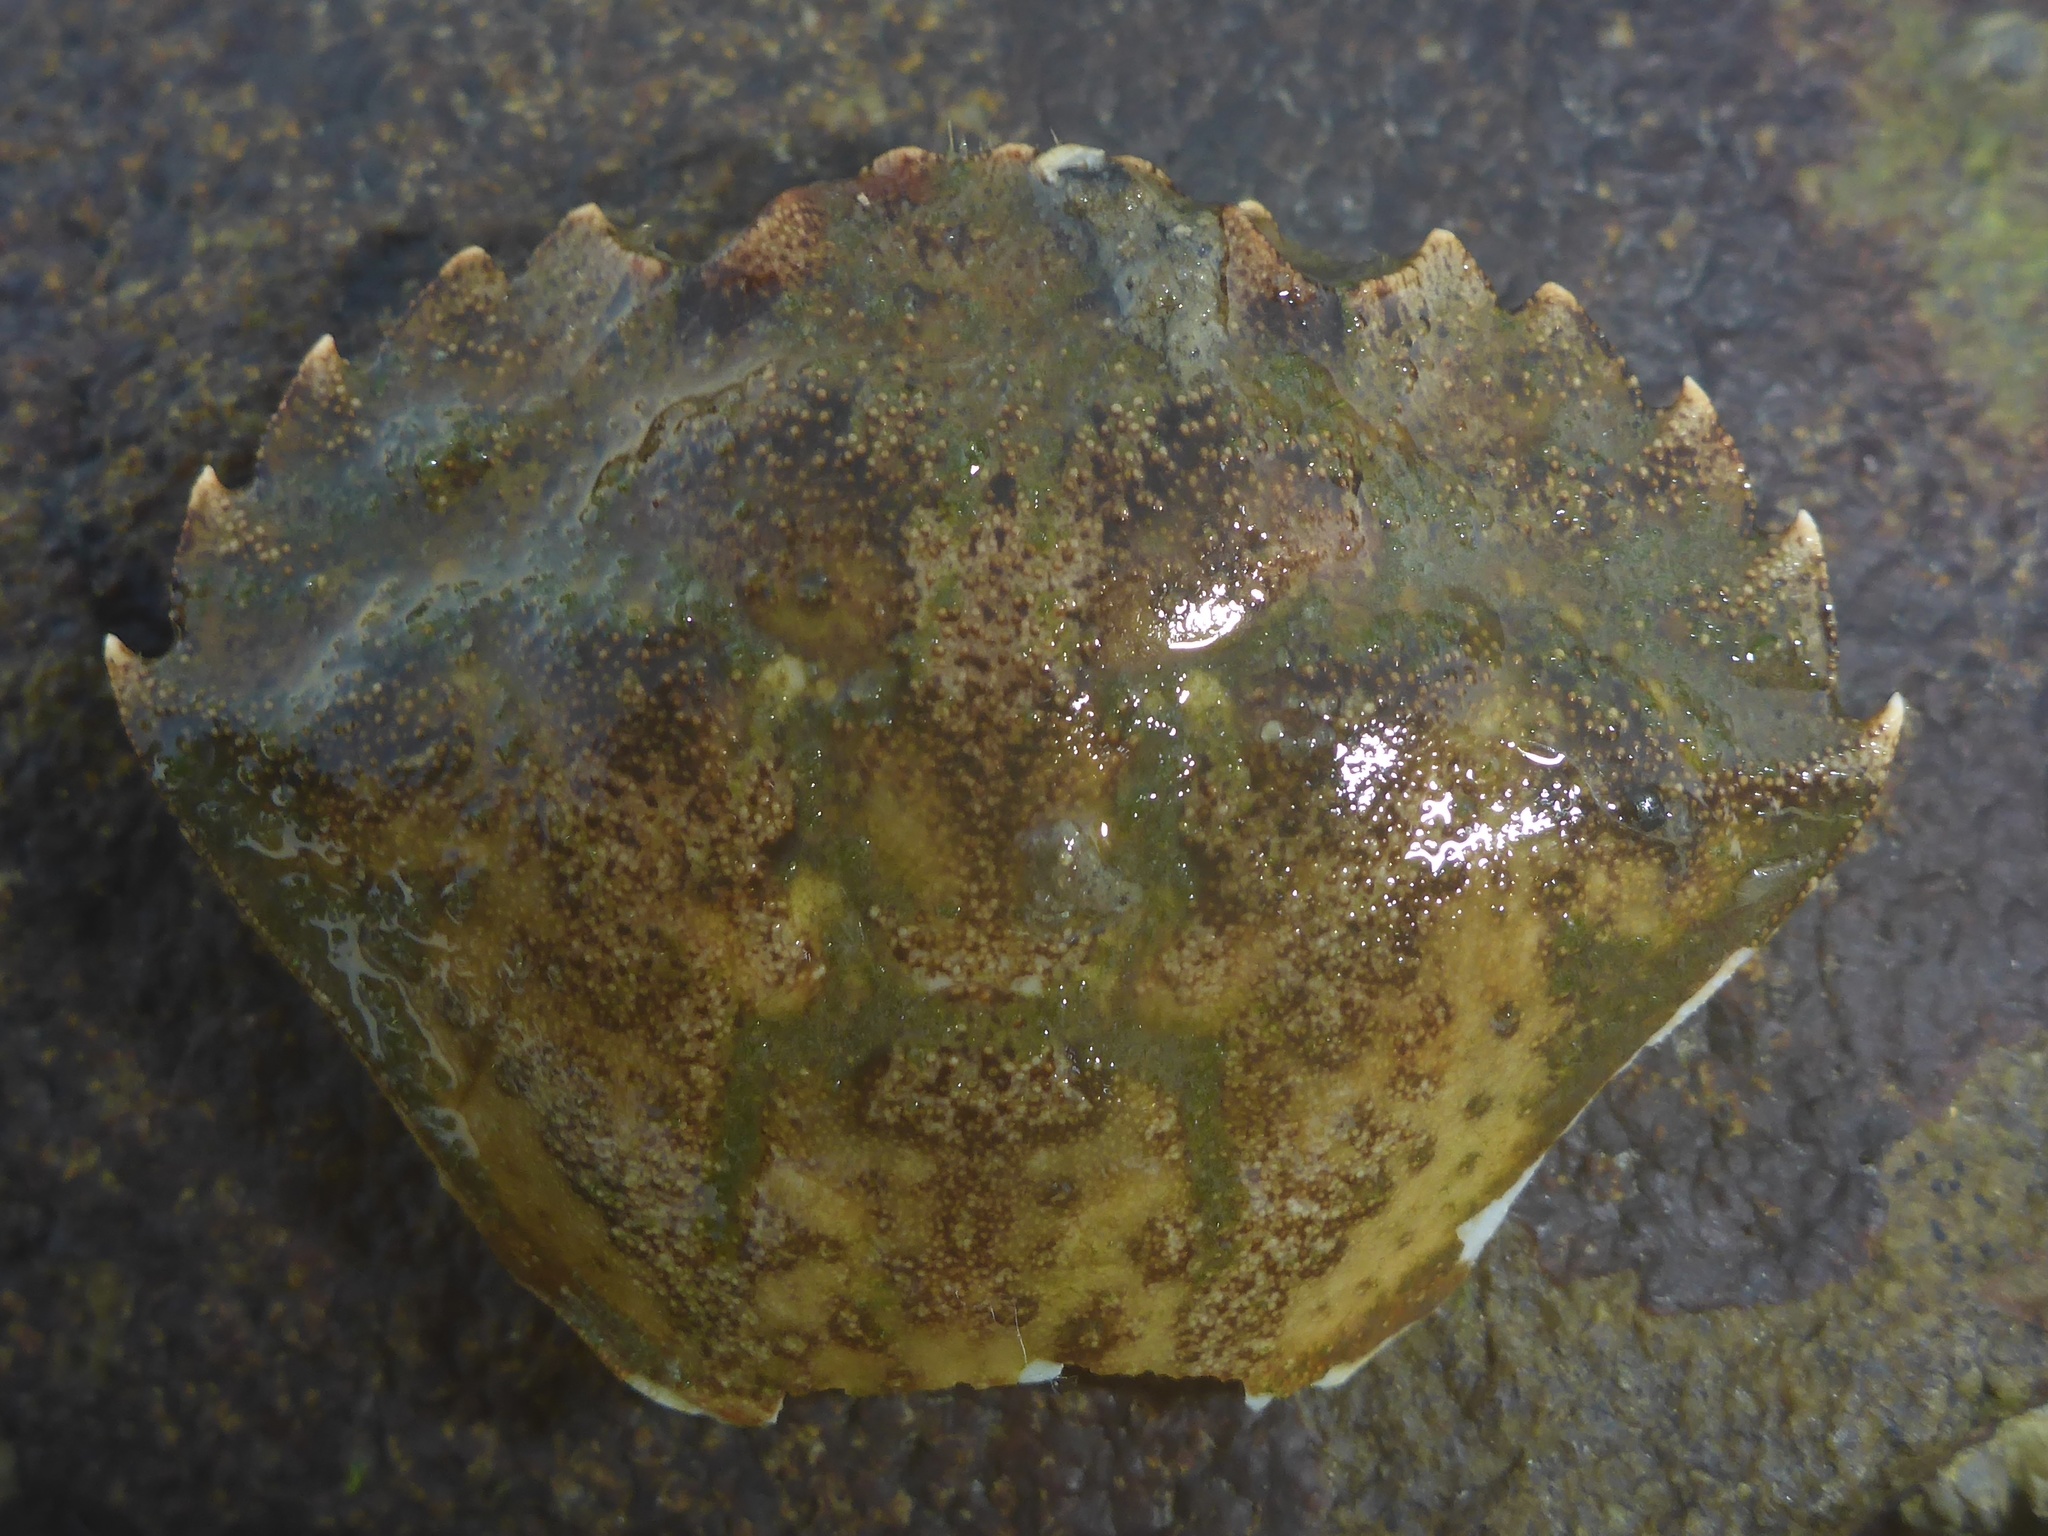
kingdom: Animalia
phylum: Arthropoda
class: Malacostraca
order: Decapoda
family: Carcinidae
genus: Carcinus
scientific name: Carcinus maenas
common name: European green crab
